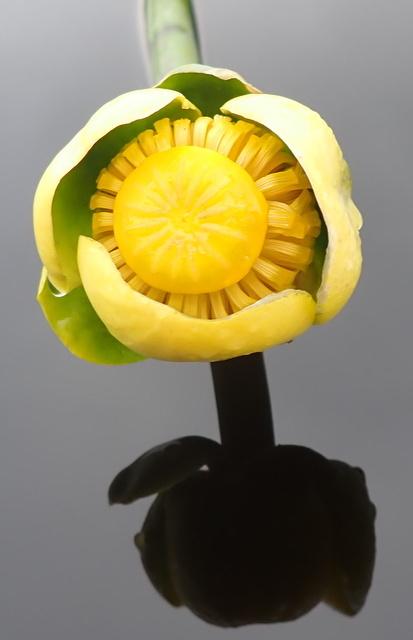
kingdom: Plantae
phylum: Tracheophyta
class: Magnoliopsida
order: Nymphaeales
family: Nymphaeaceae
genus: Nuphar
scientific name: Nuphar advena
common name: Spatter-dock
